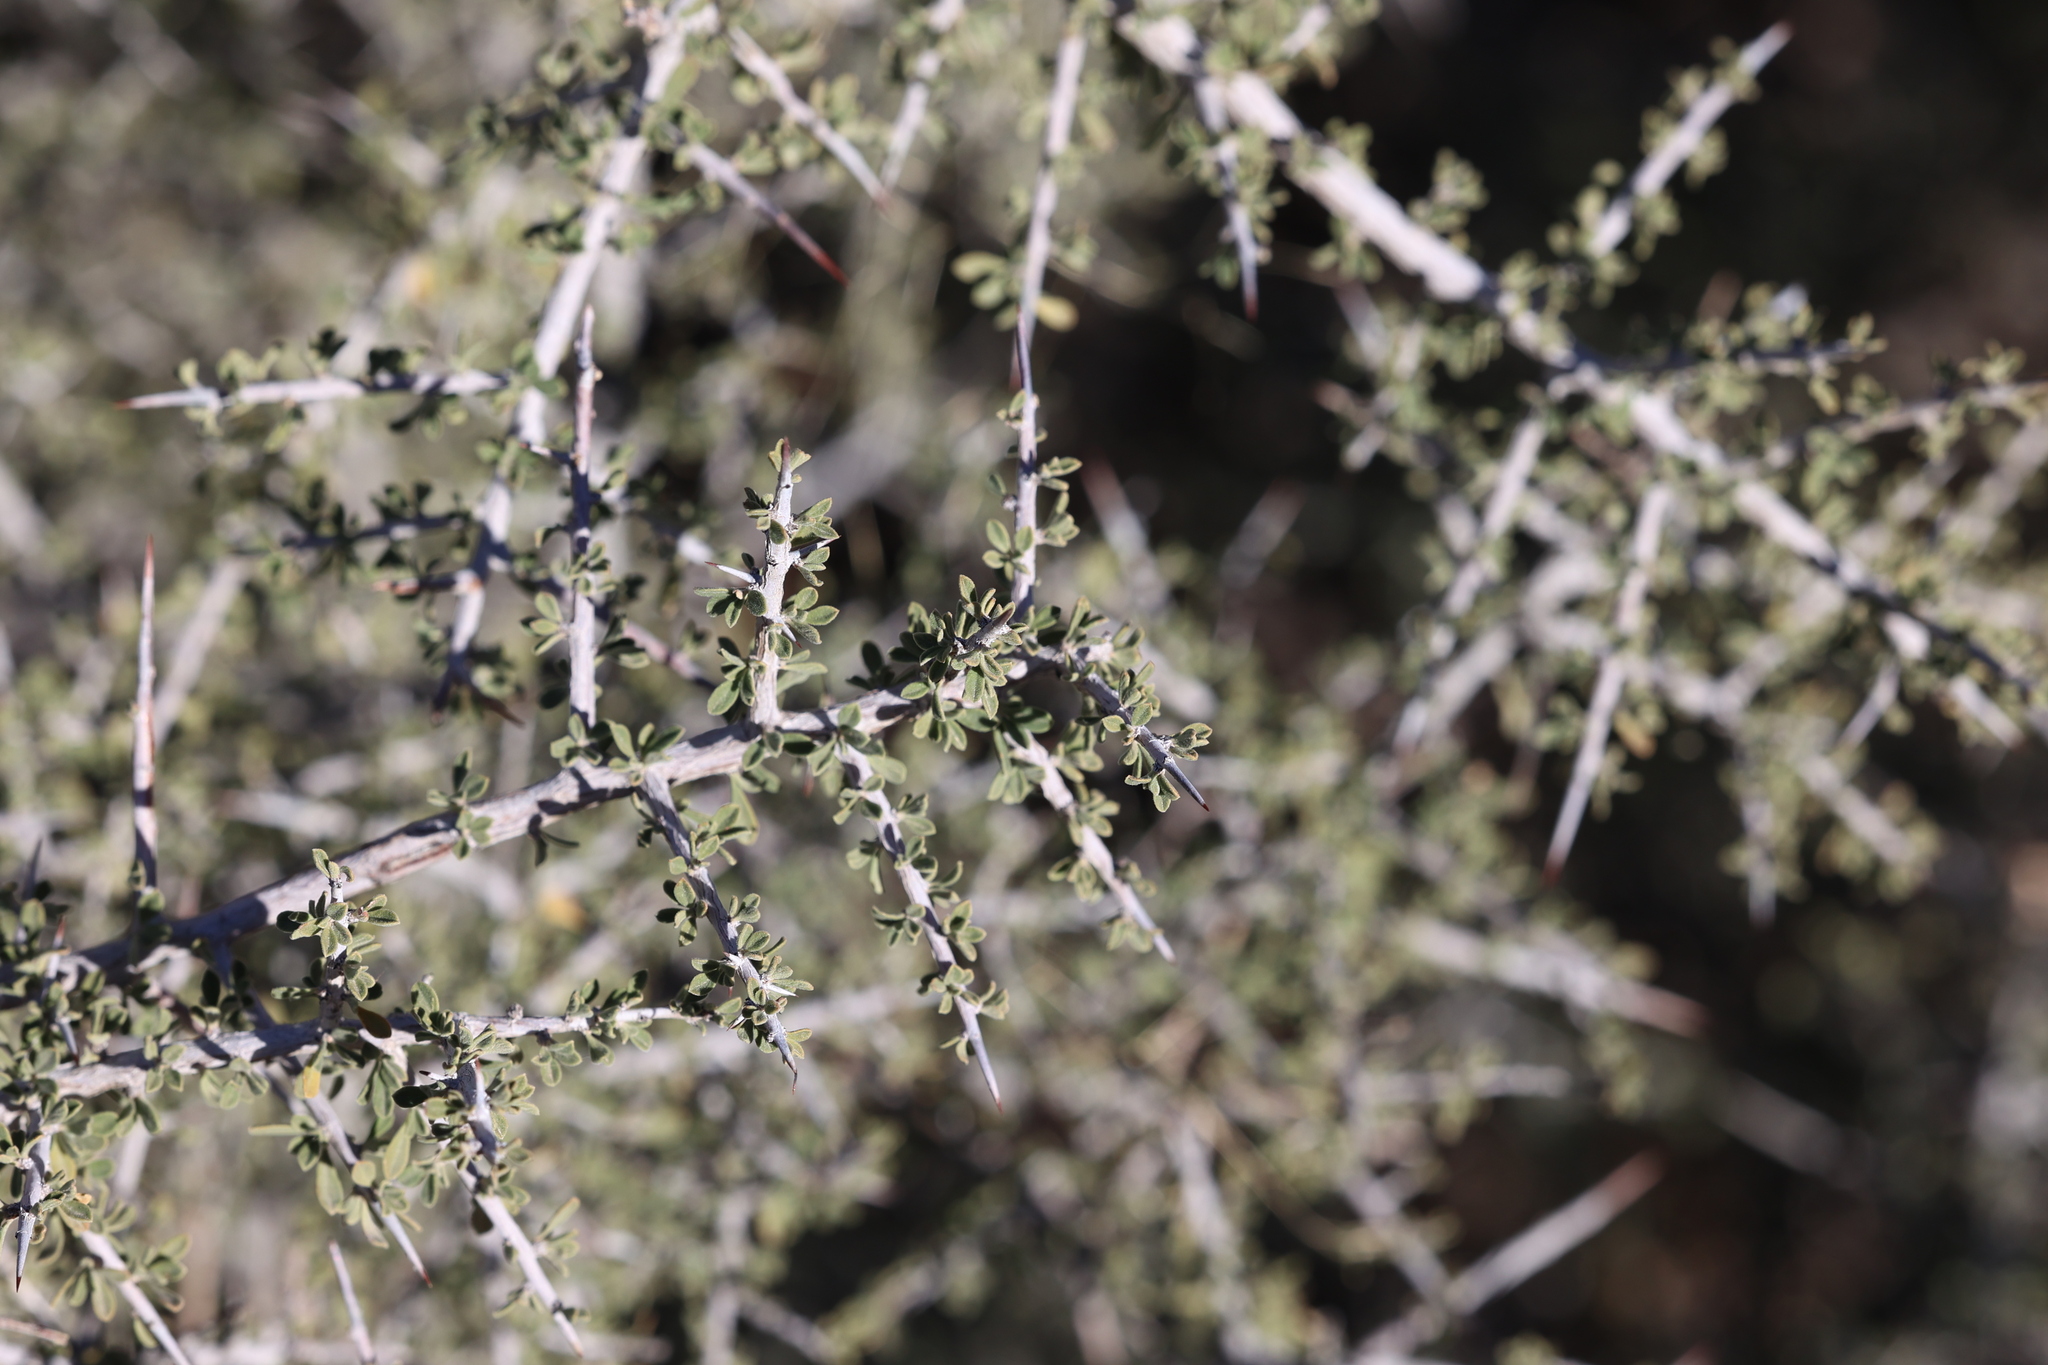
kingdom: Plantae
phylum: Tracheophyta
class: Magnoliopsida
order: Rosales
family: Rhamnaceae
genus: Condalia
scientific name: Condalia warnockii
